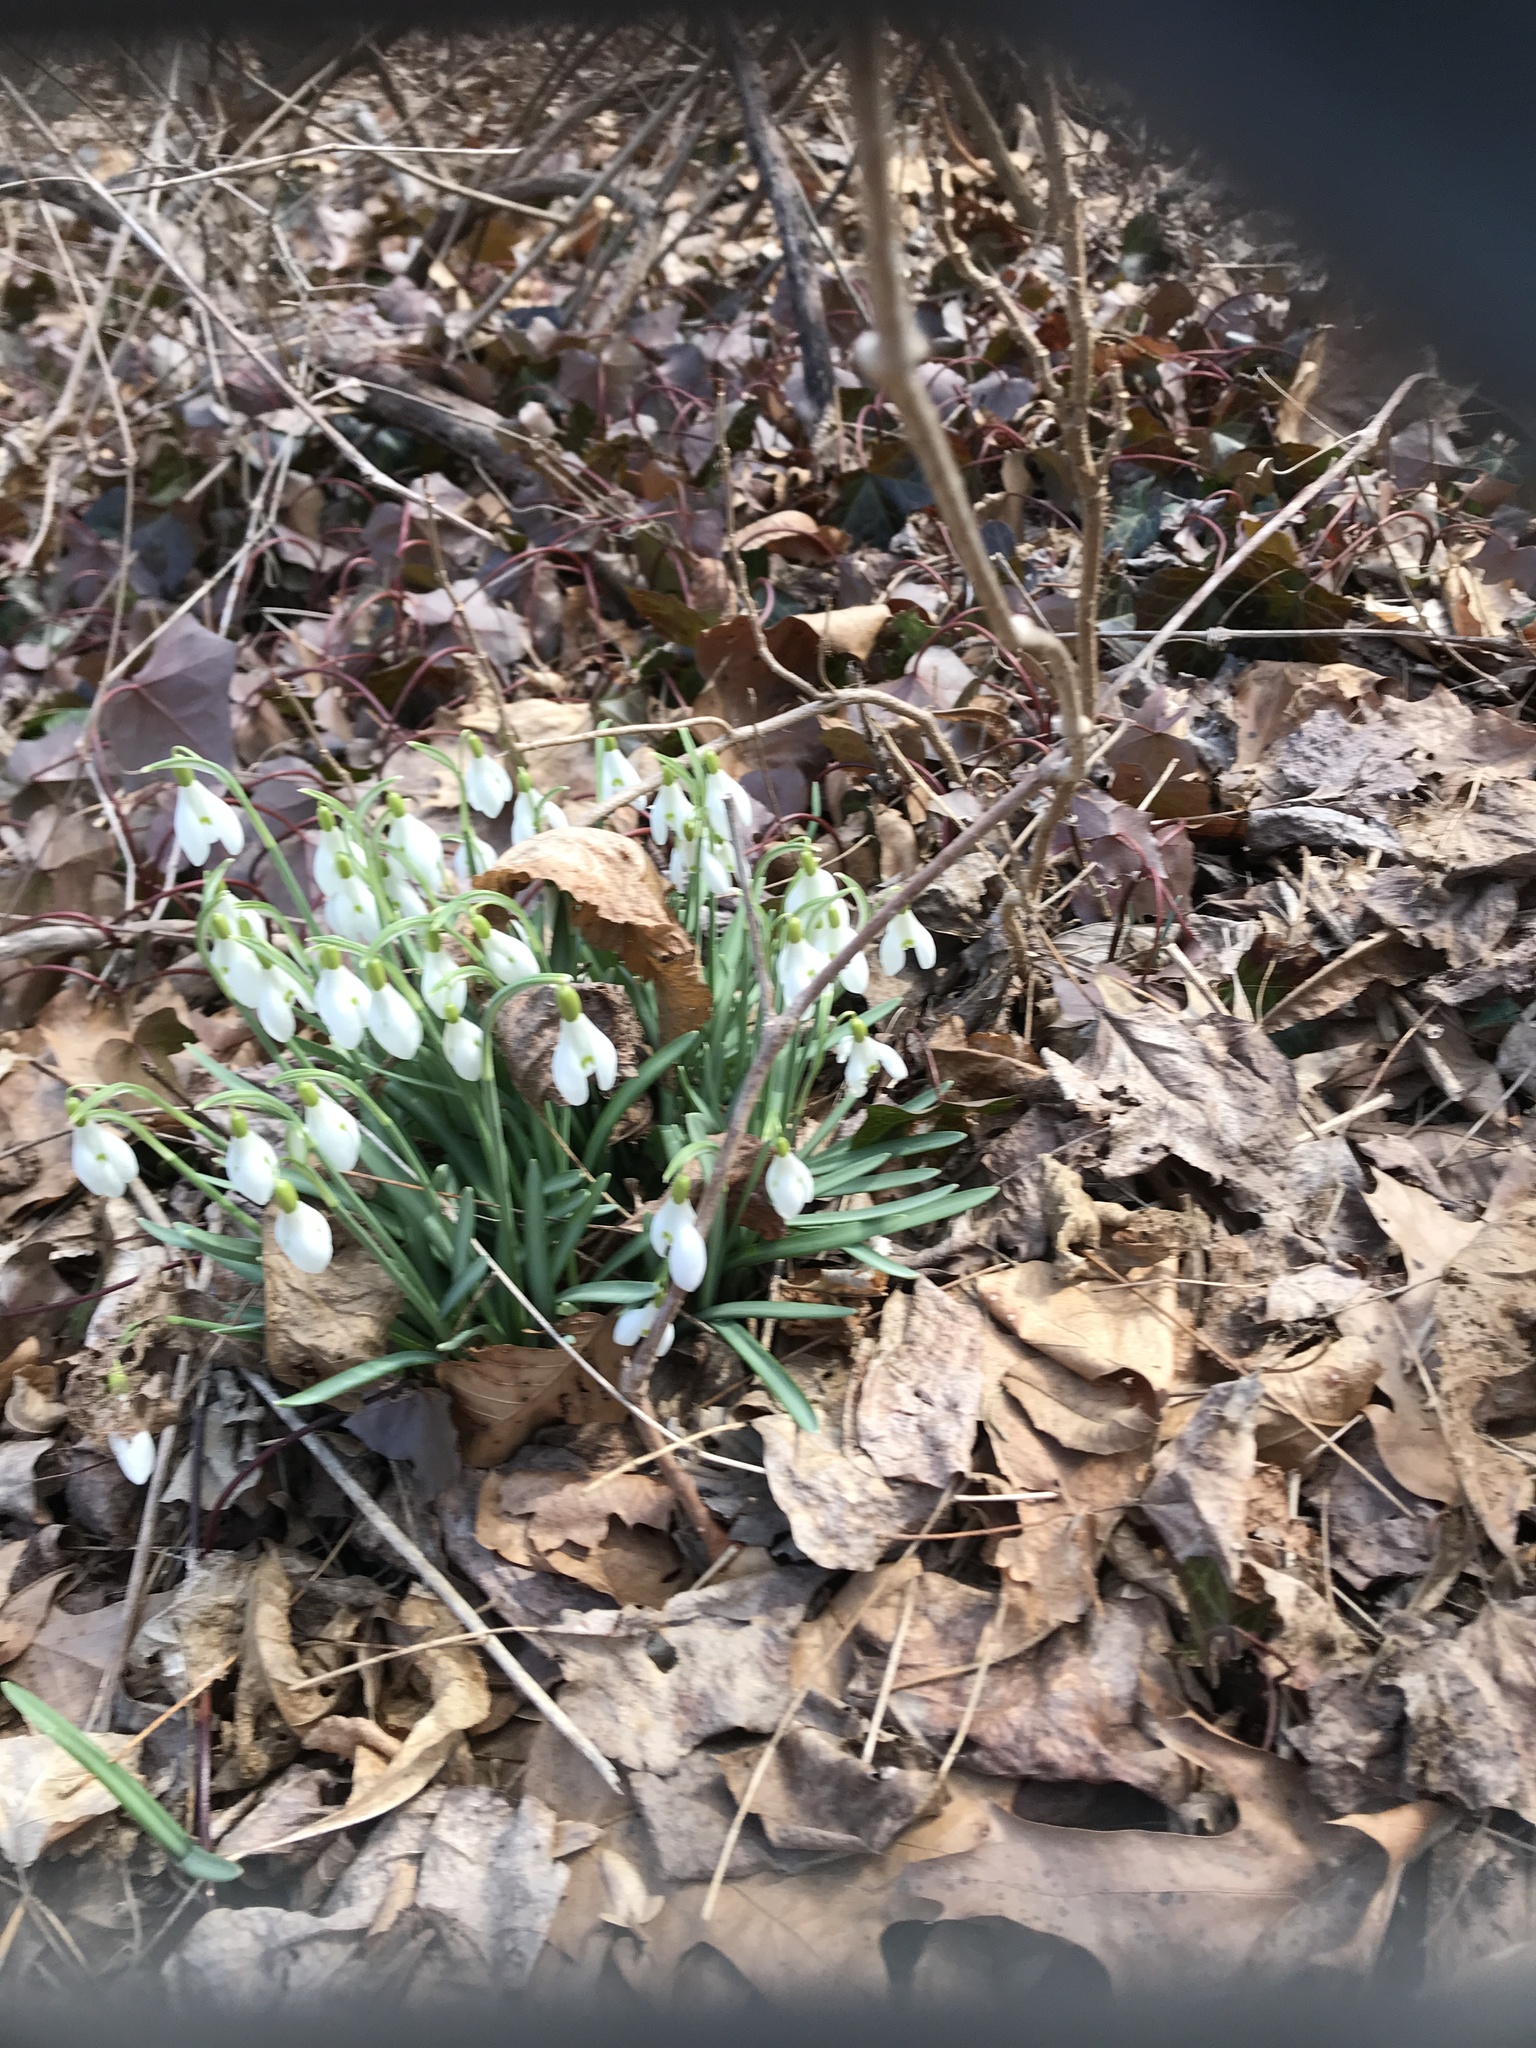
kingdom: Plantae
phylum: Tracheophyta
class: Liliopsida
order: Asparagales
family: Amaryllidaceae
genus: Galanthus
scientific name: Galanthus nivalis
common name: Snowdrop
